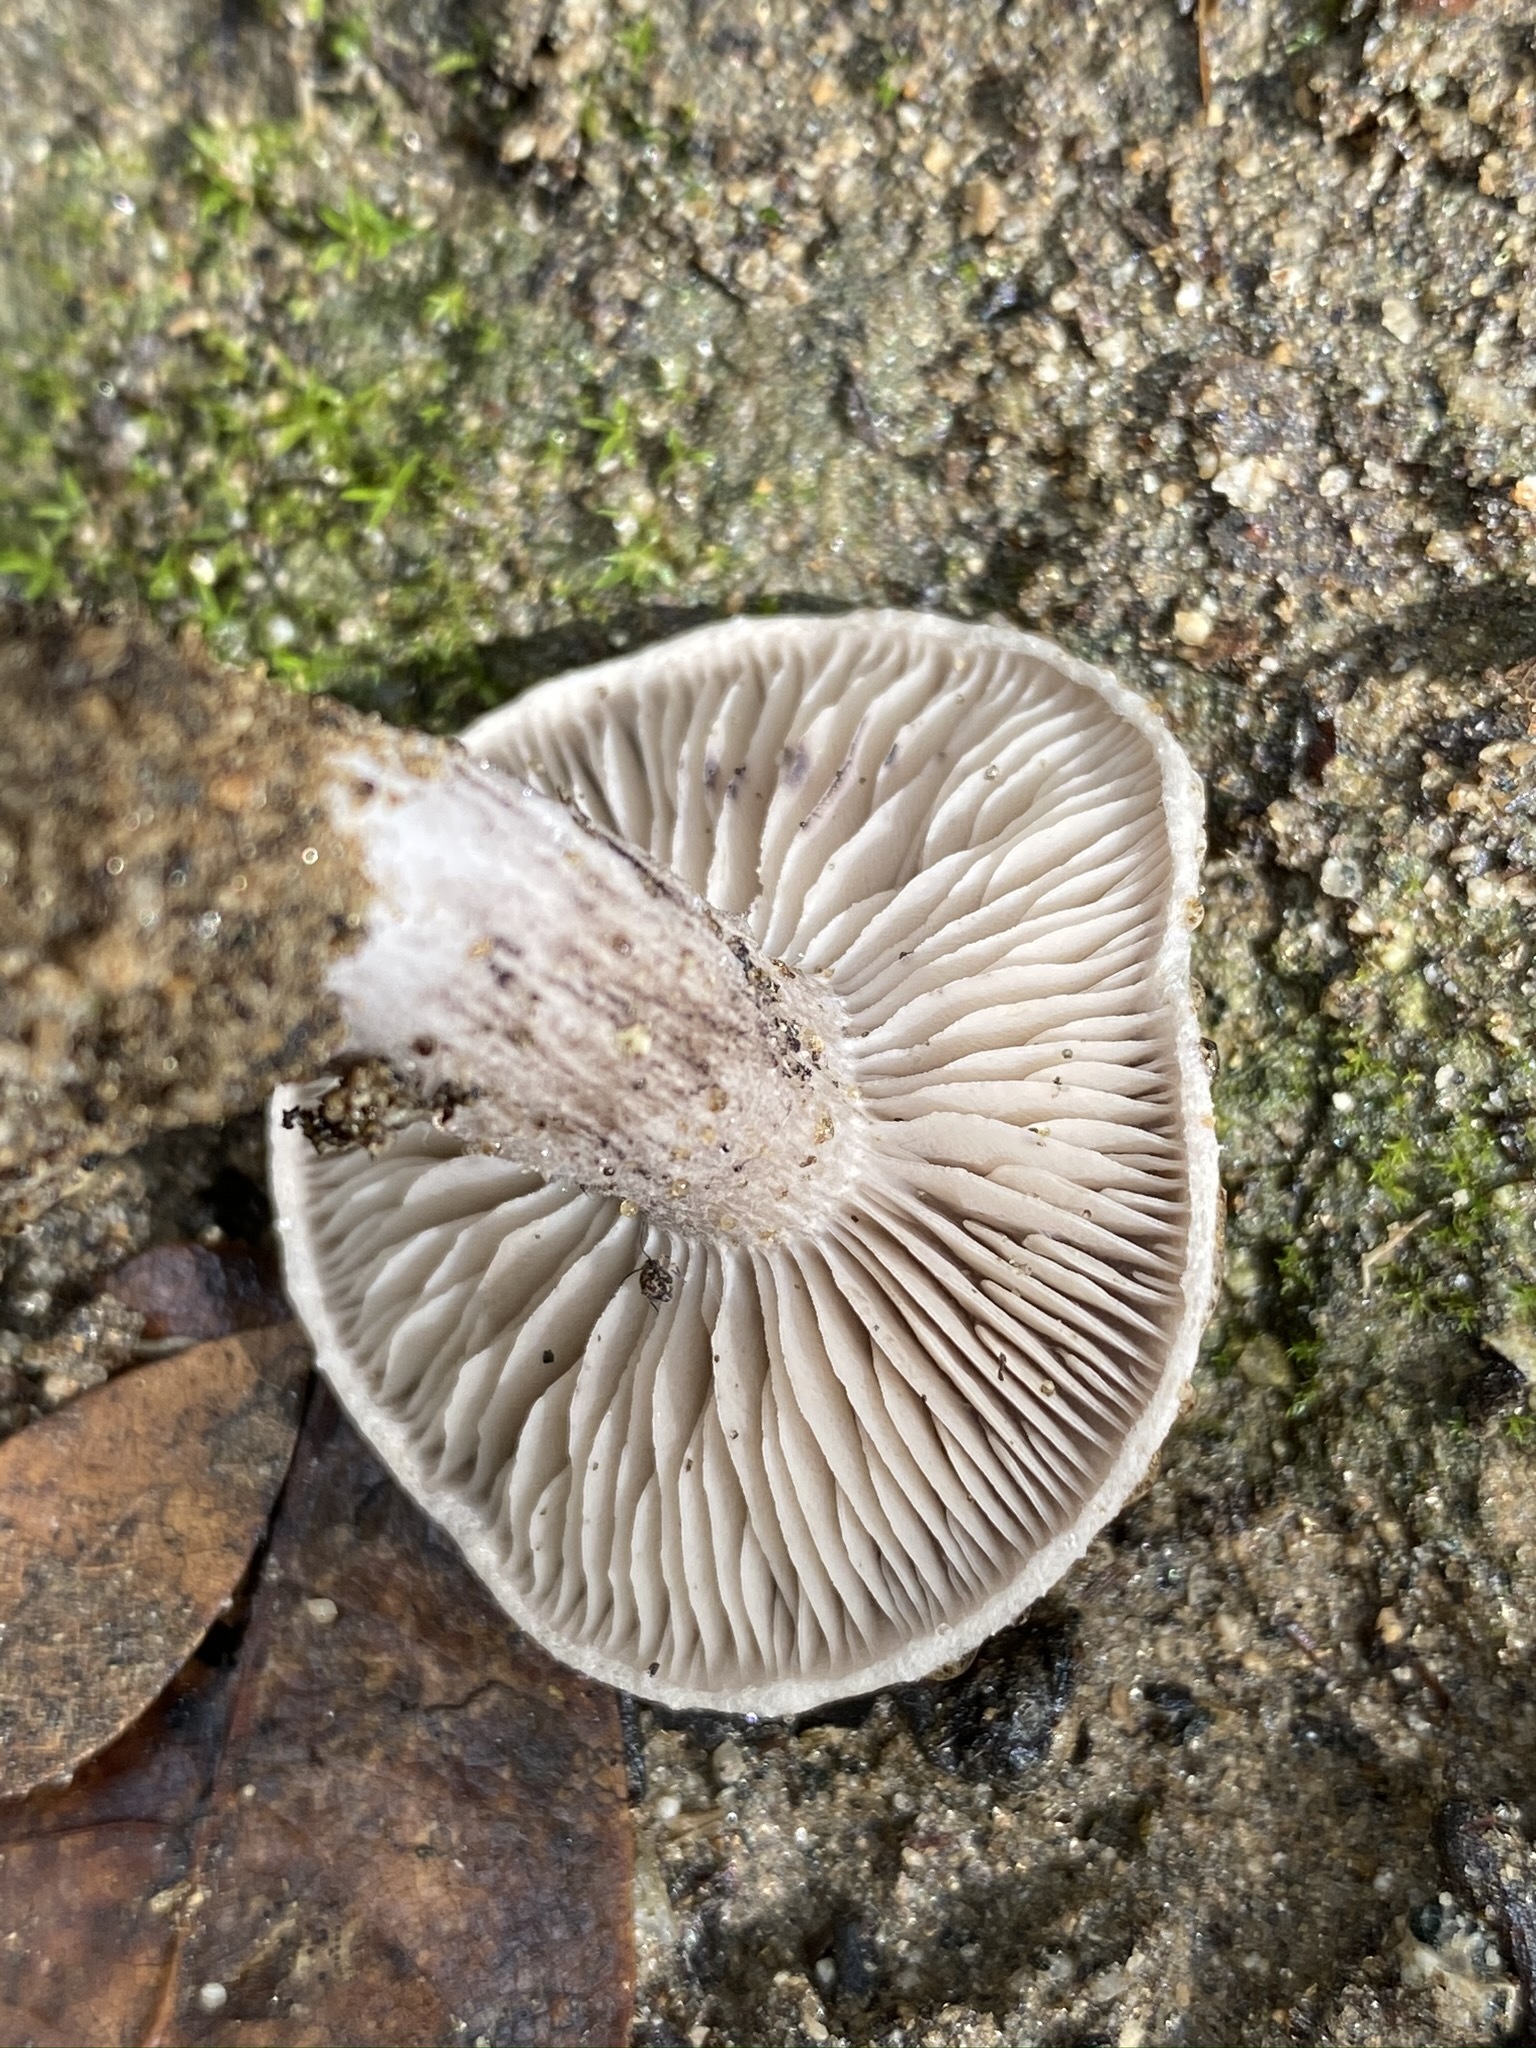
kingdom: Fungi
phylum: Basidiomycota
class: Agaricomycetes
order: Agaricales
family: Tricholomataceae
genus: Tricholoma
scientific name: Tricholoma terreum
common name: Grey knight
